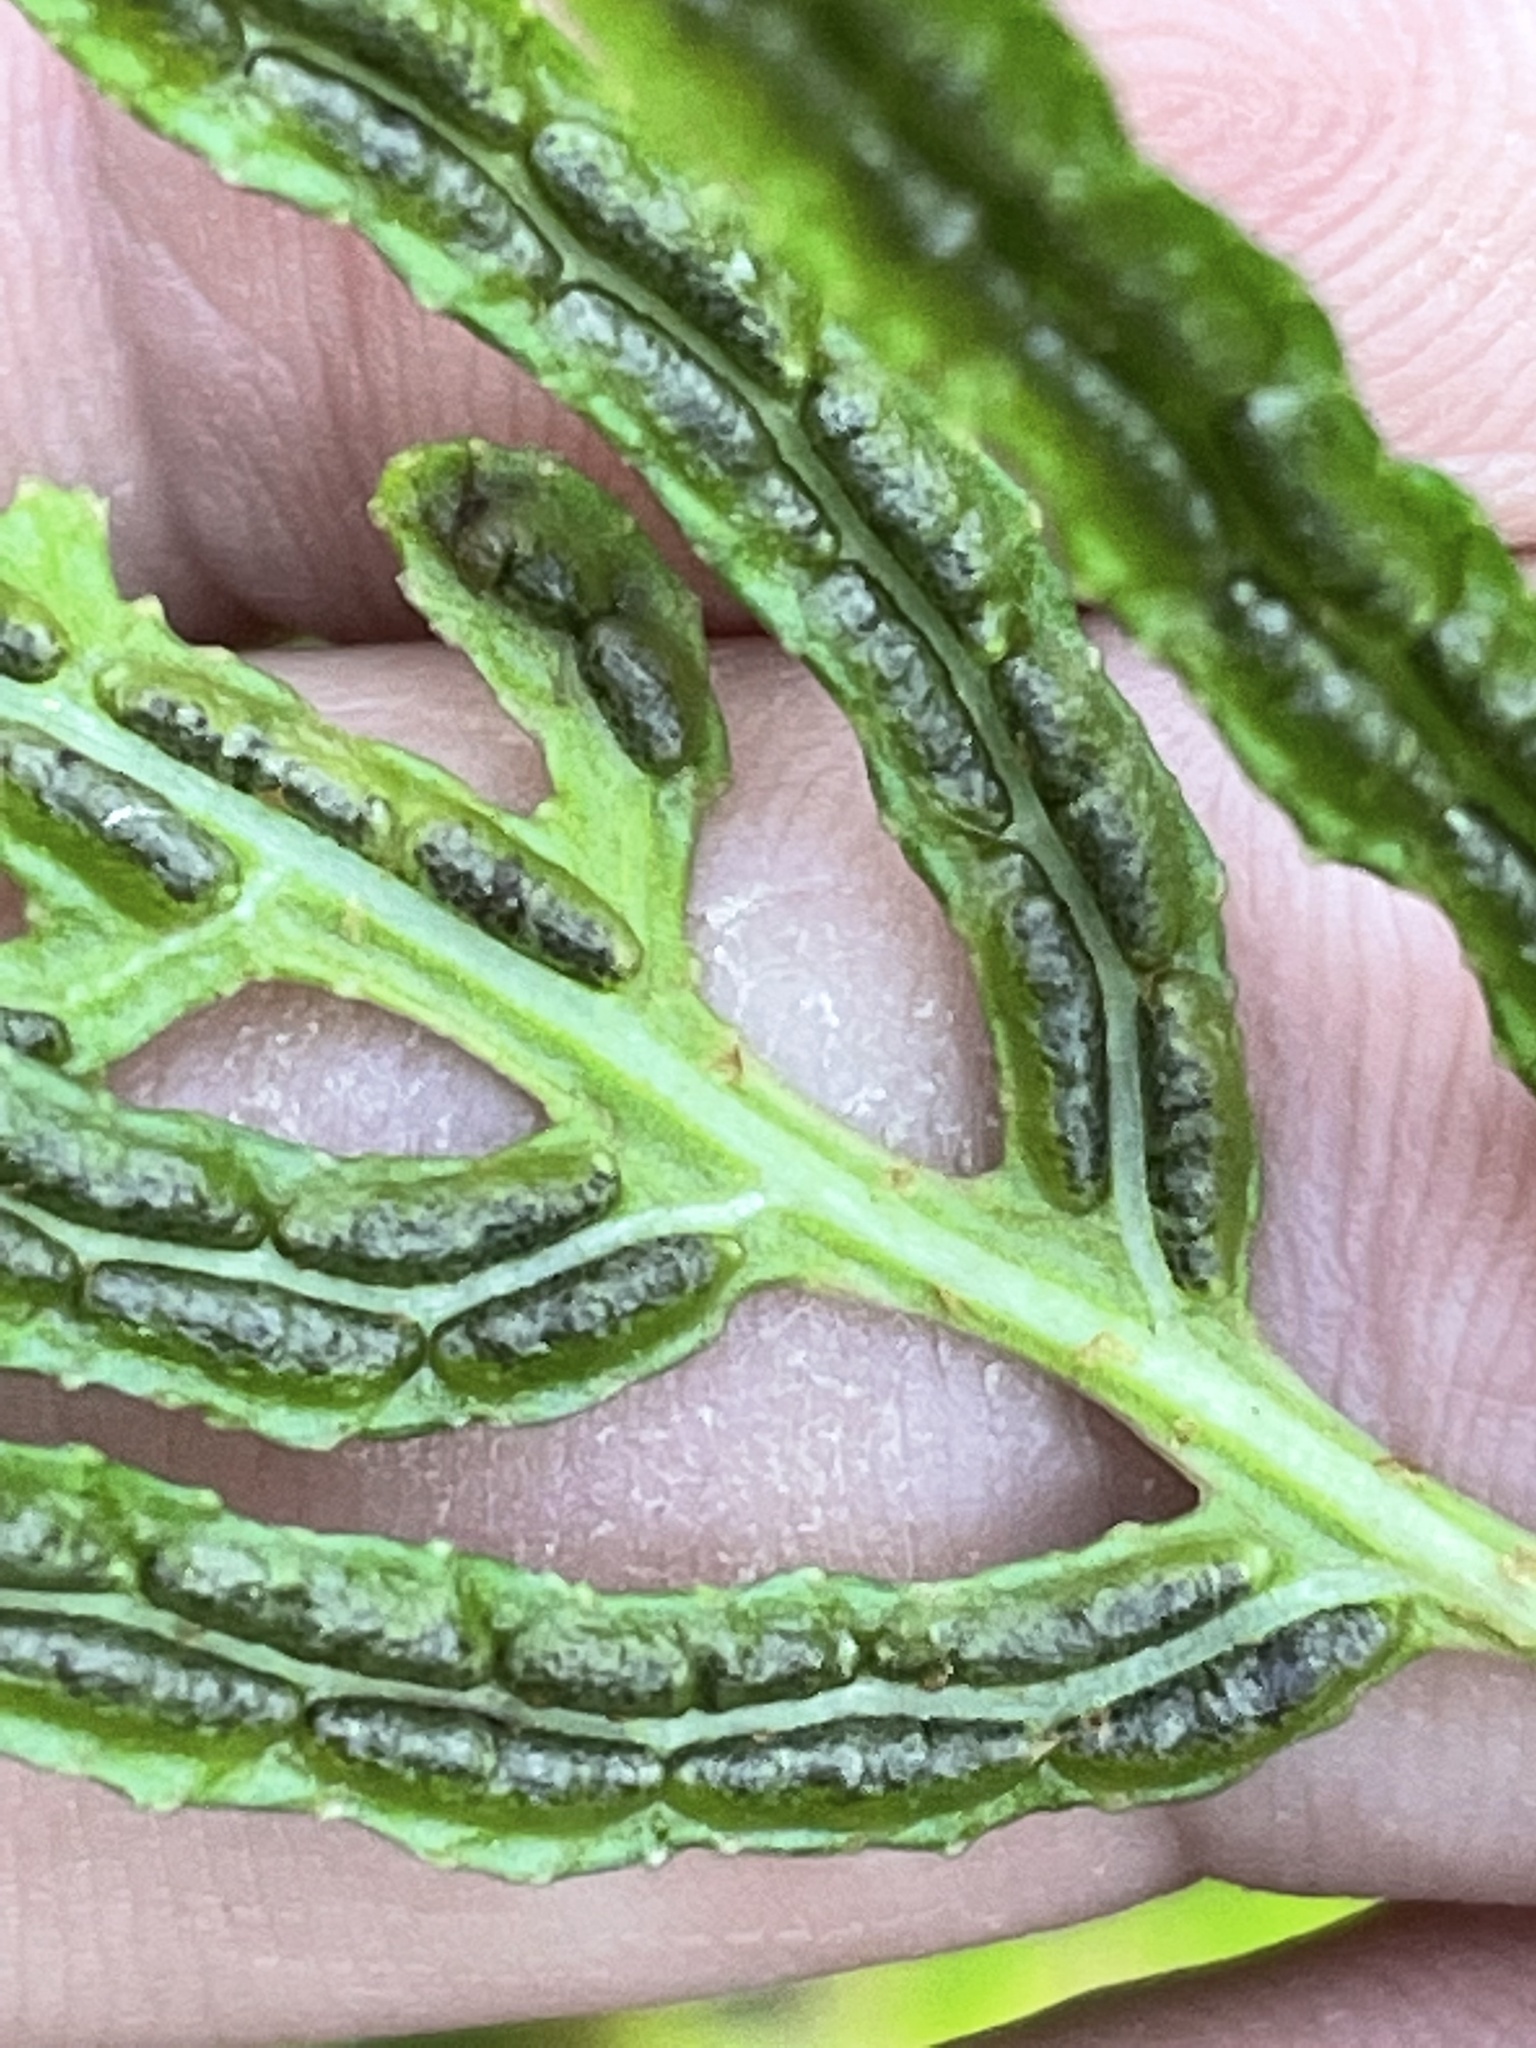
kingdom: Plantae
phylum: Tracheophyta
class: Polypodiopsida
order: Polypodiales
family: Blechnaceae
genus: Lorinseria
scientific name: Lorinseria areolata
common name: Dwarf chain fern
